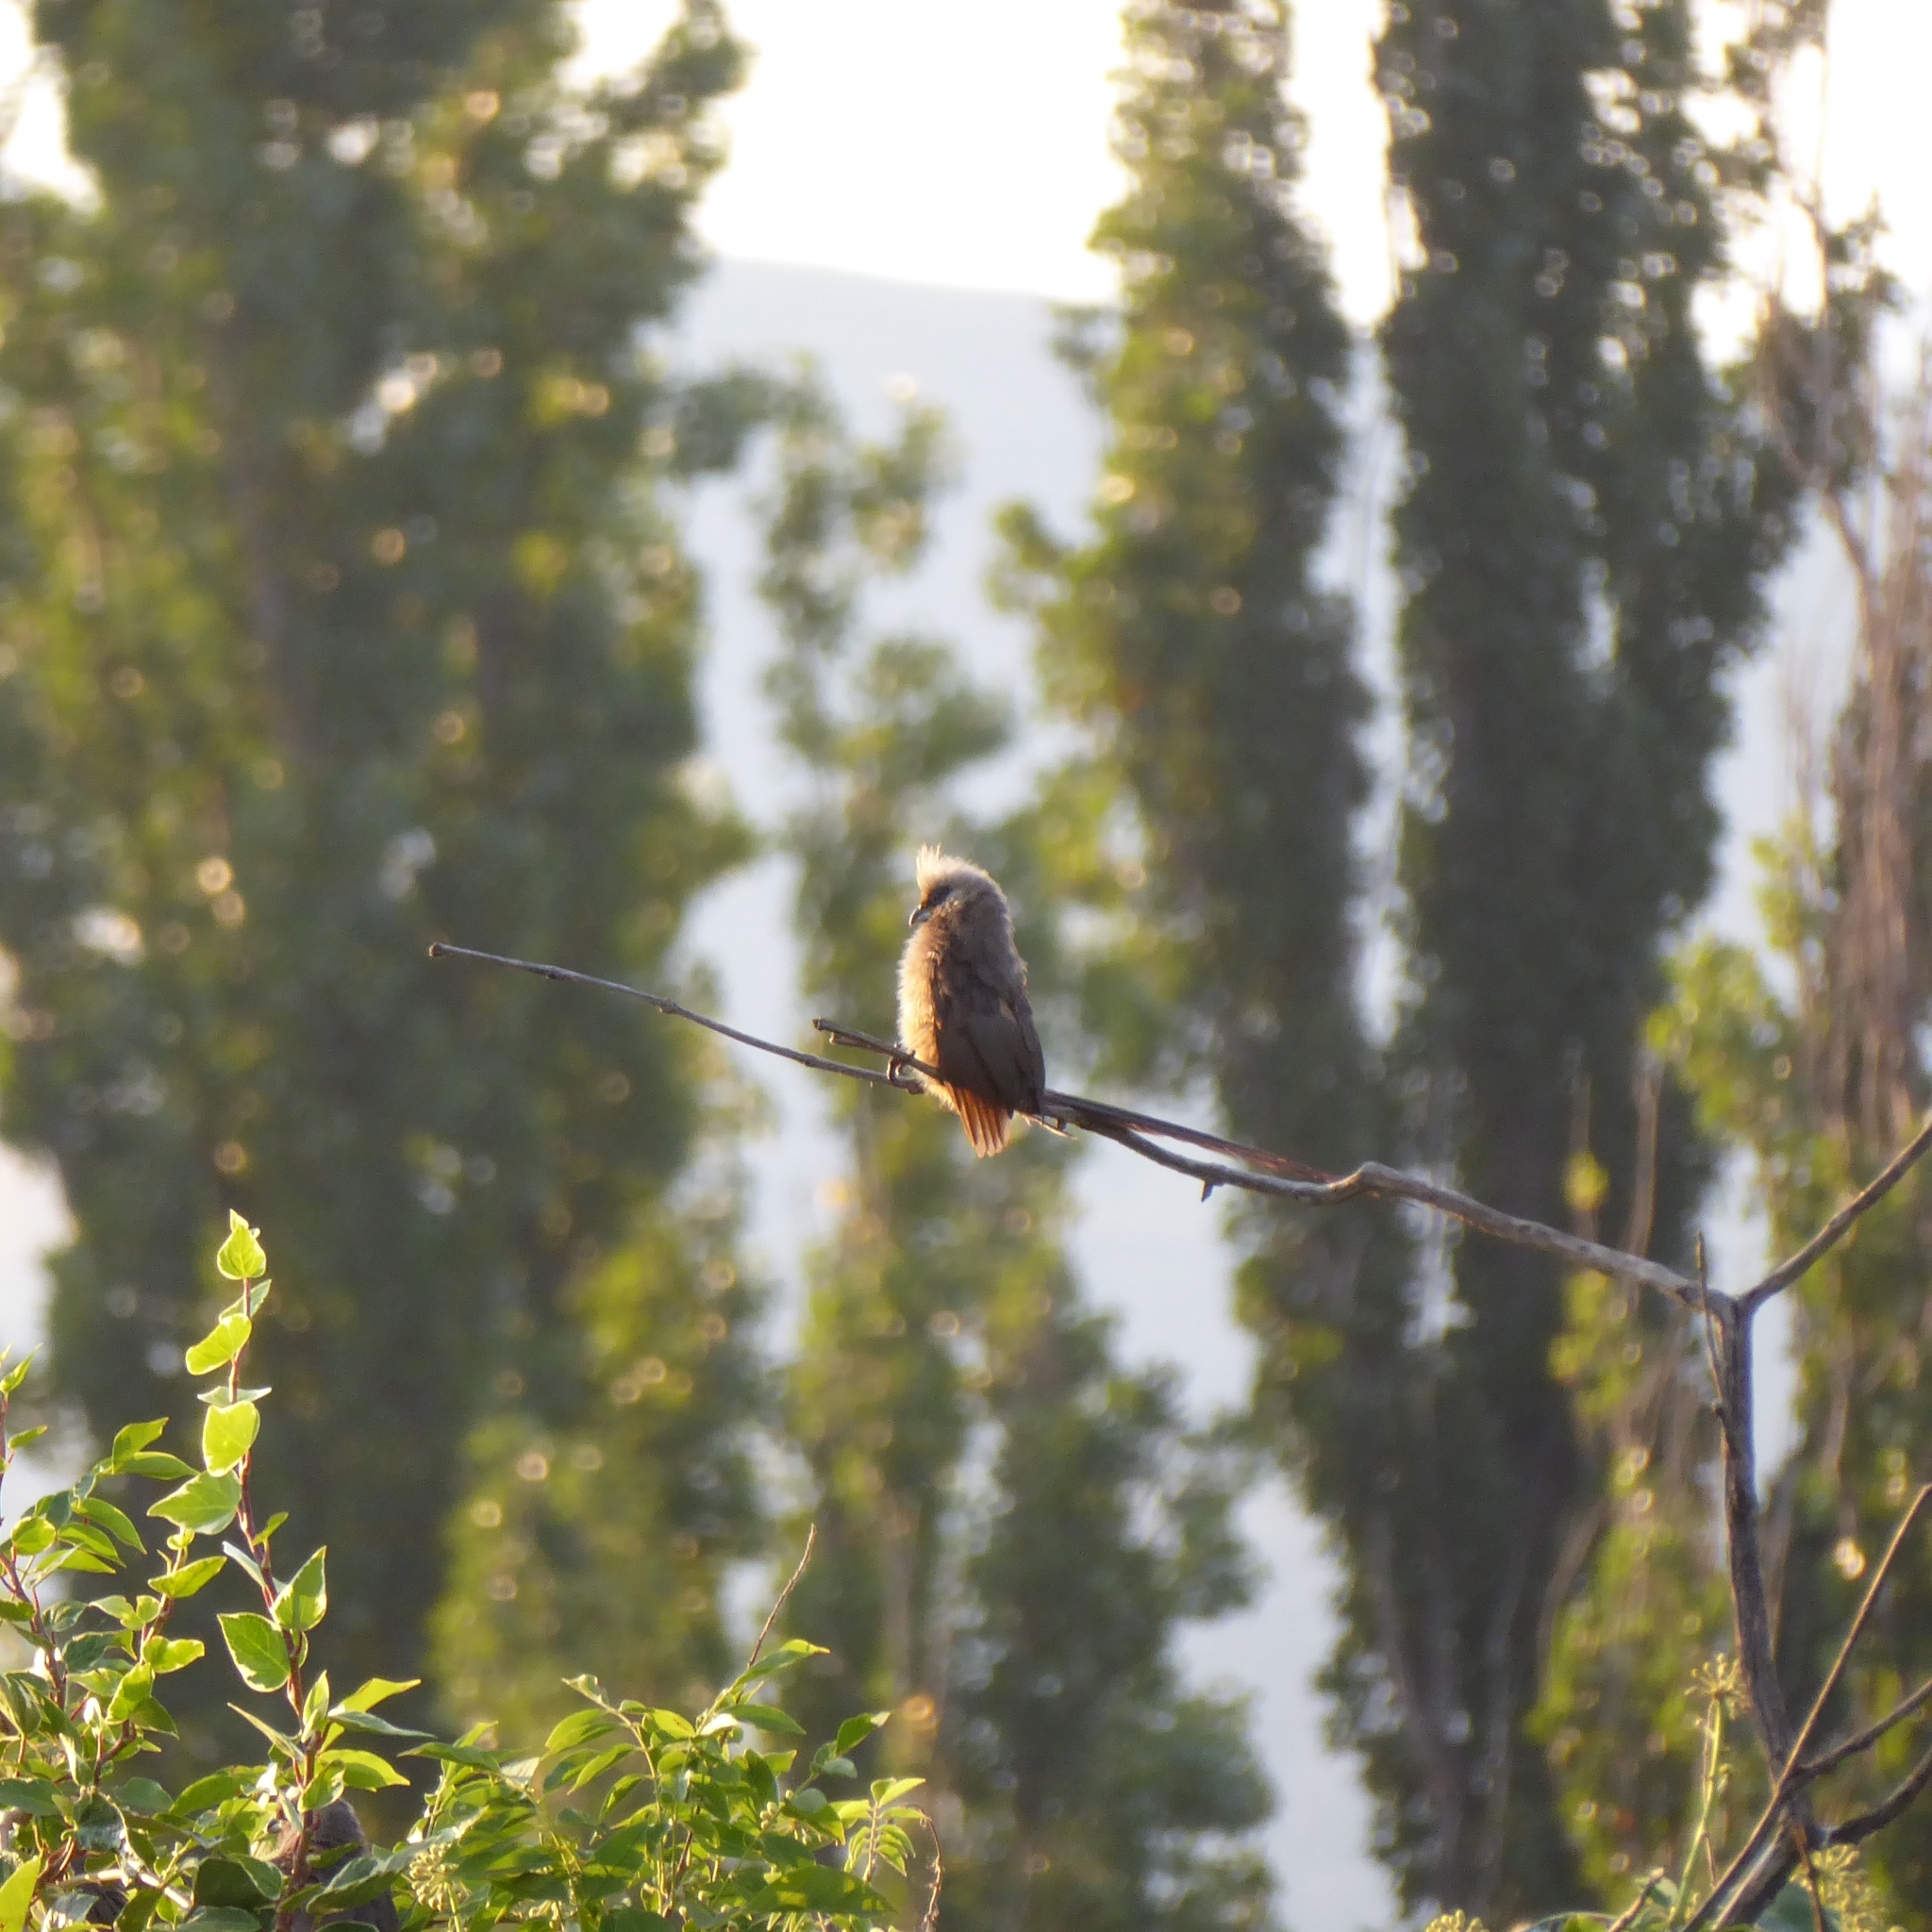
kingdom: Animalia
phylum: Chordata
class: Aves
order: Coliiformes
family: Coliidae
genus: Colius
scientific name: Colius striatus
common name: Speckled mousebird
